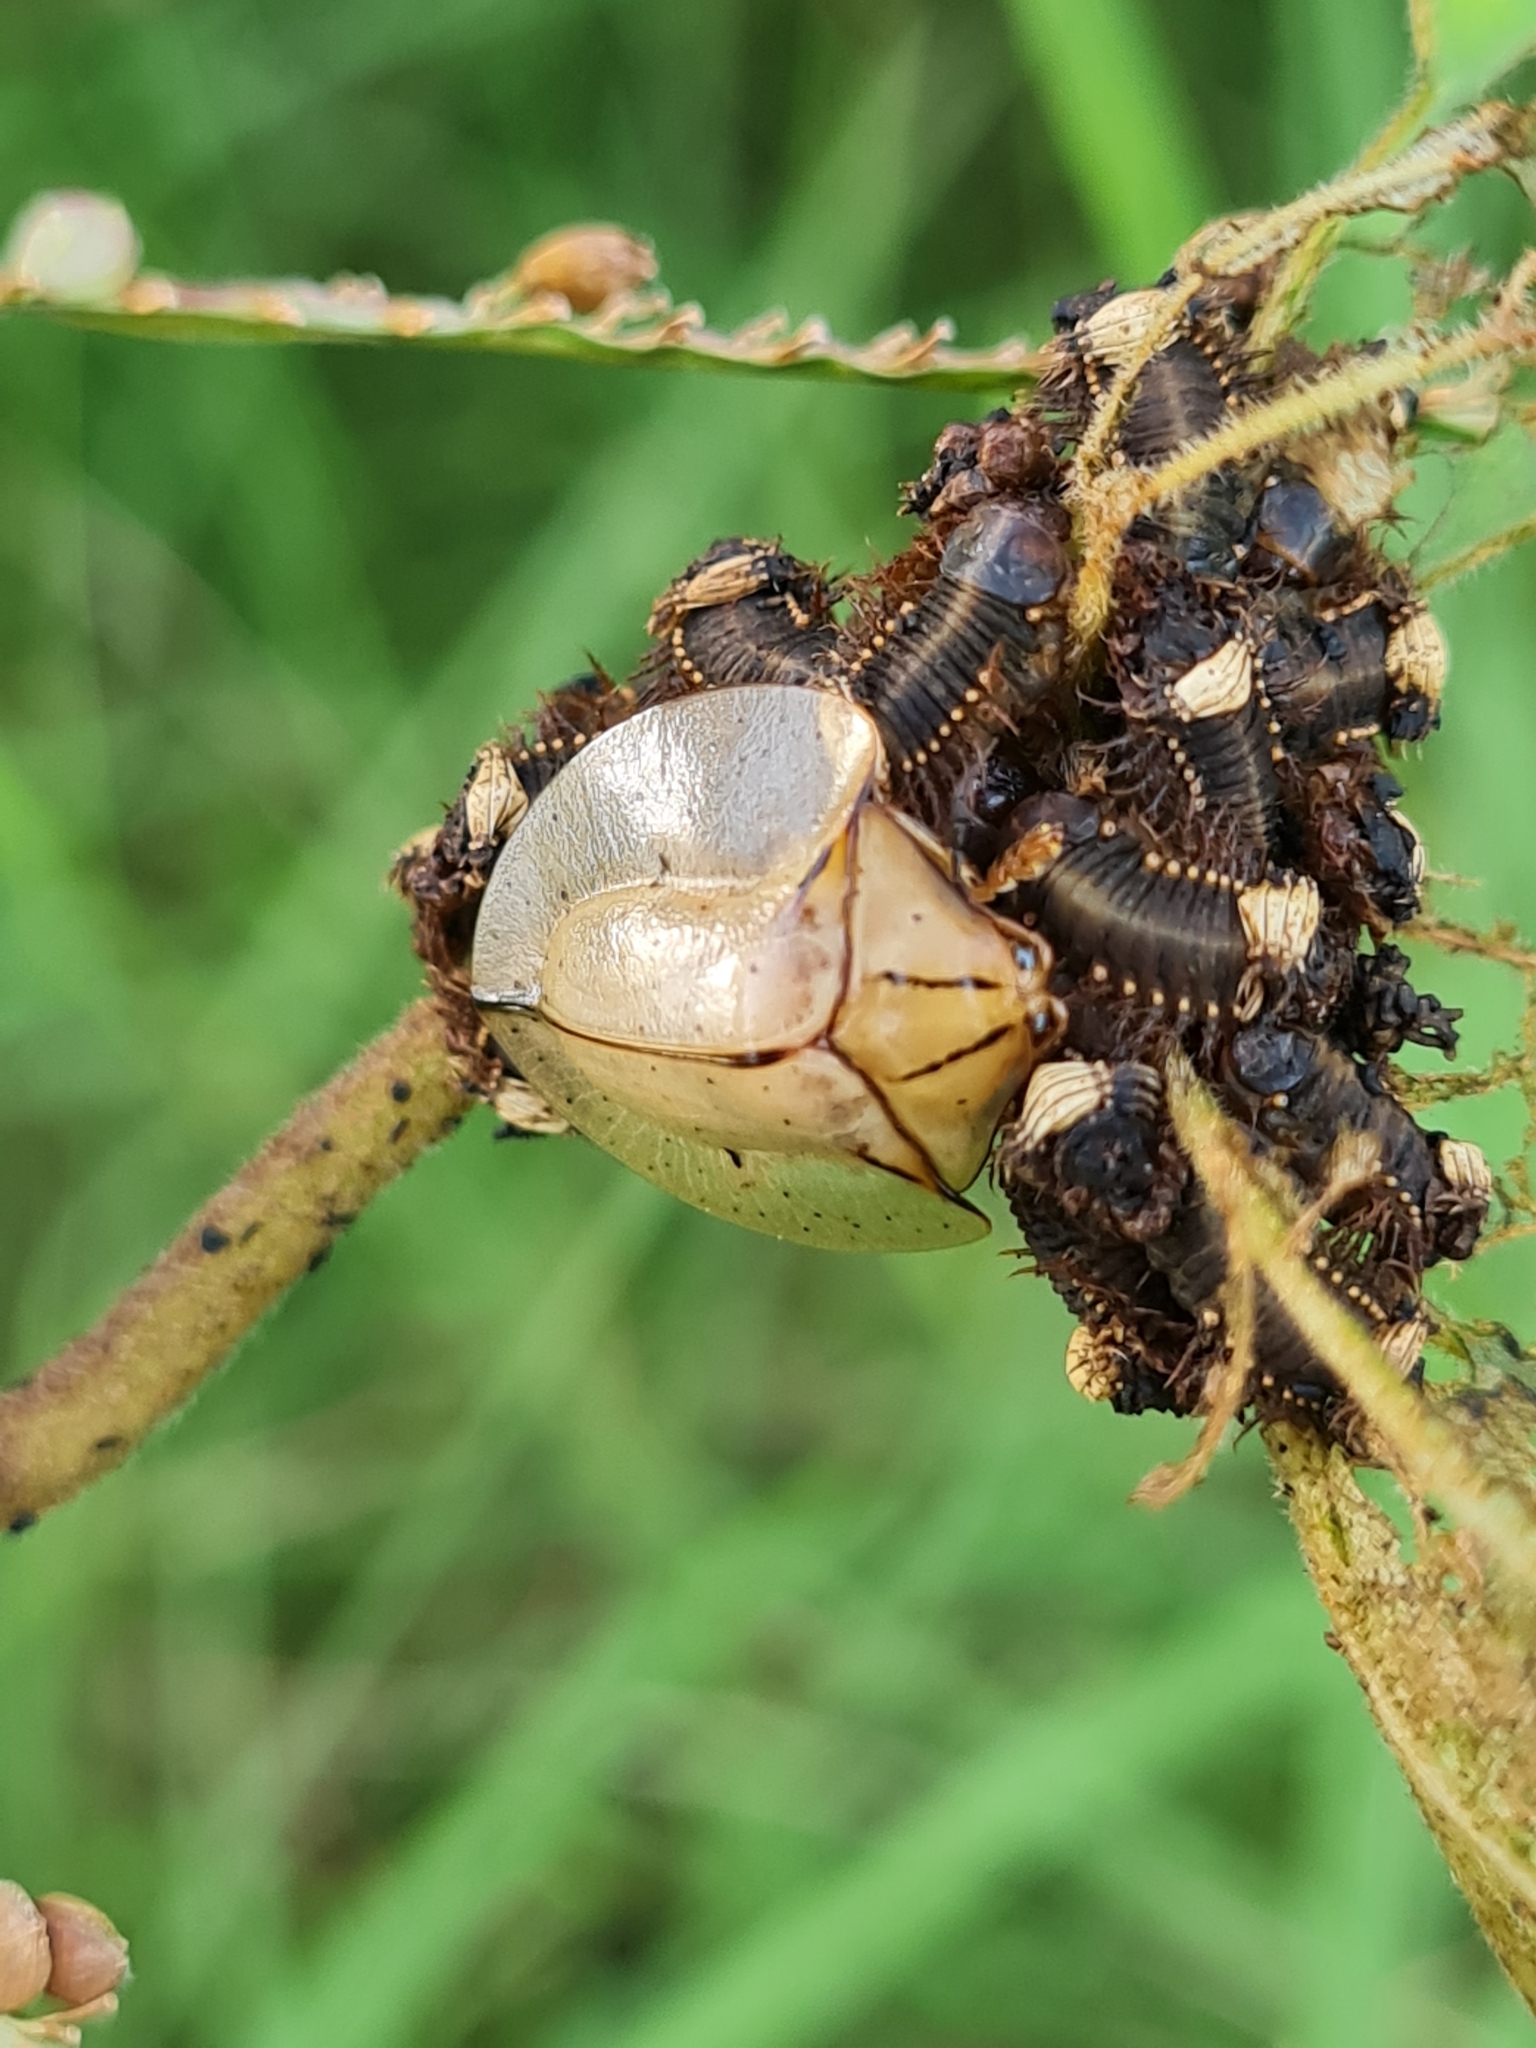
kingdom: Animalia
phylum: Arthropoda
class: Insecta
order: Coleoptera
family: Chrysomelidae
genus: Acromis
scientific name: Acromis sparsa
